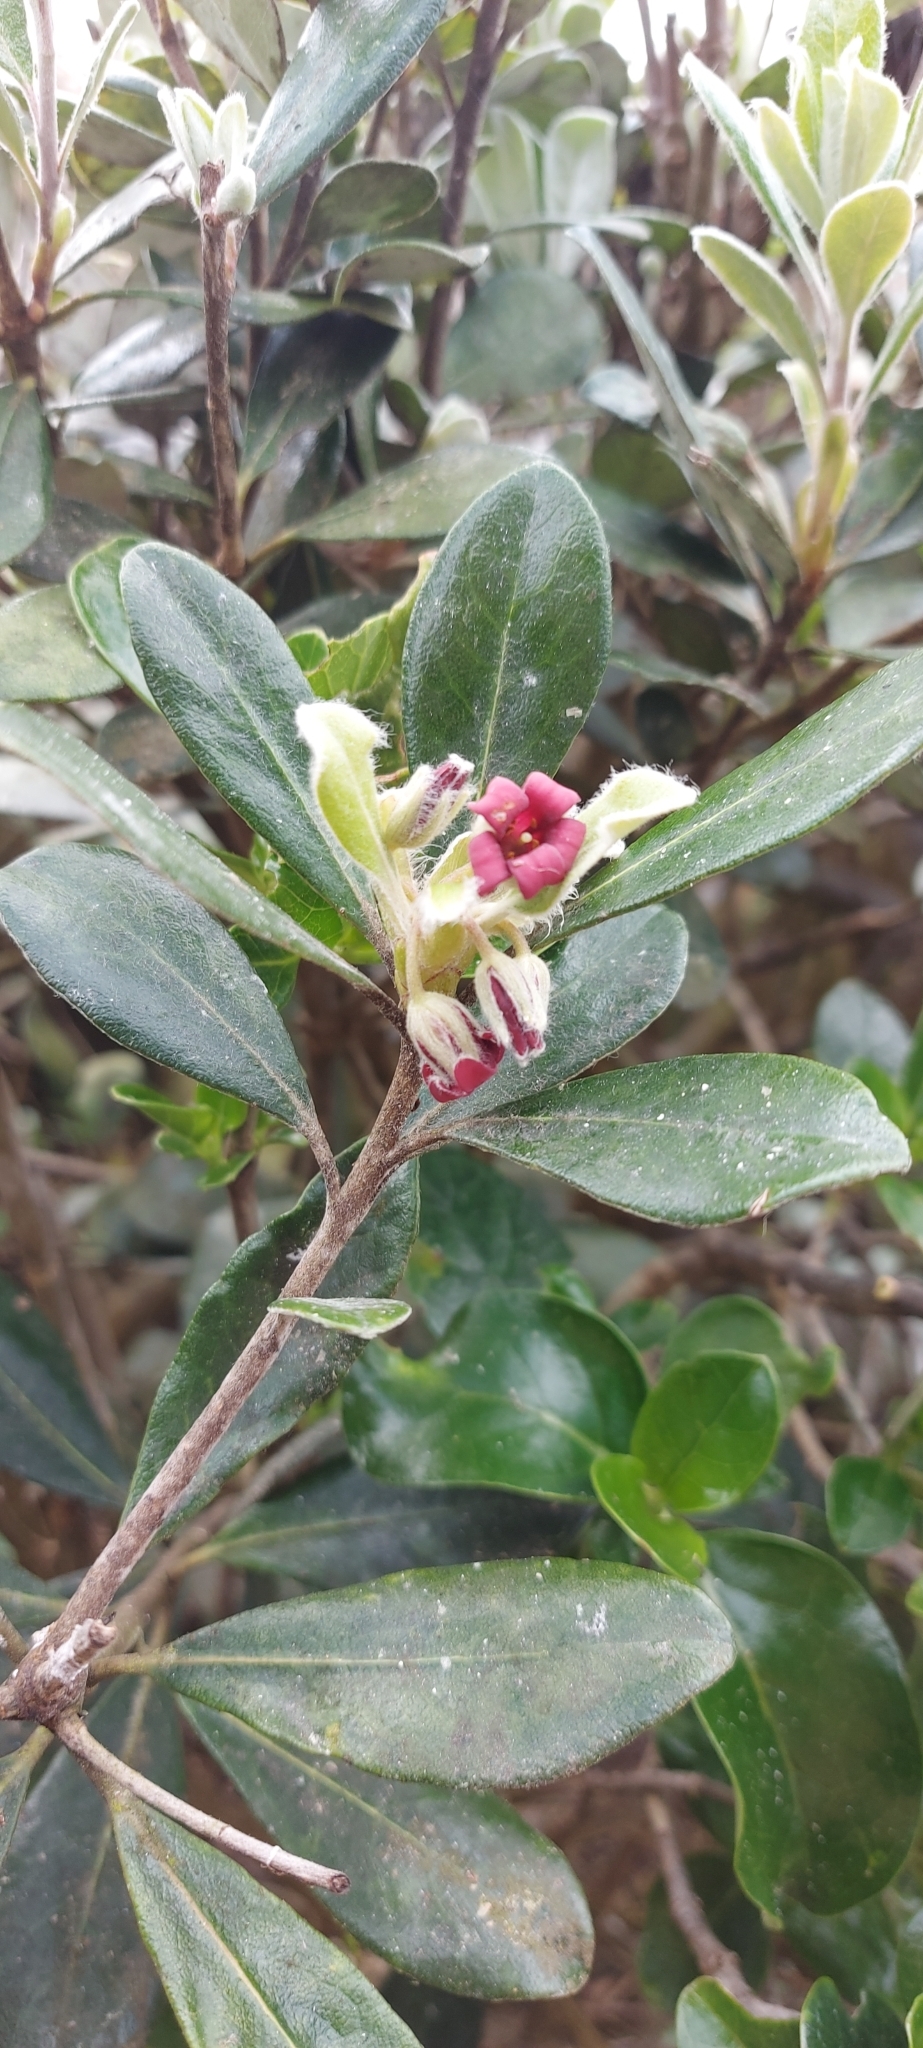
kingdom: Plantae
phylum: Tracheophyta
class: Magnoliopsida
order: Apiales
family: Pittosporaceae
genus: Pittosporum
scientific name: Pittosporum crassifolium
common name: Karo
